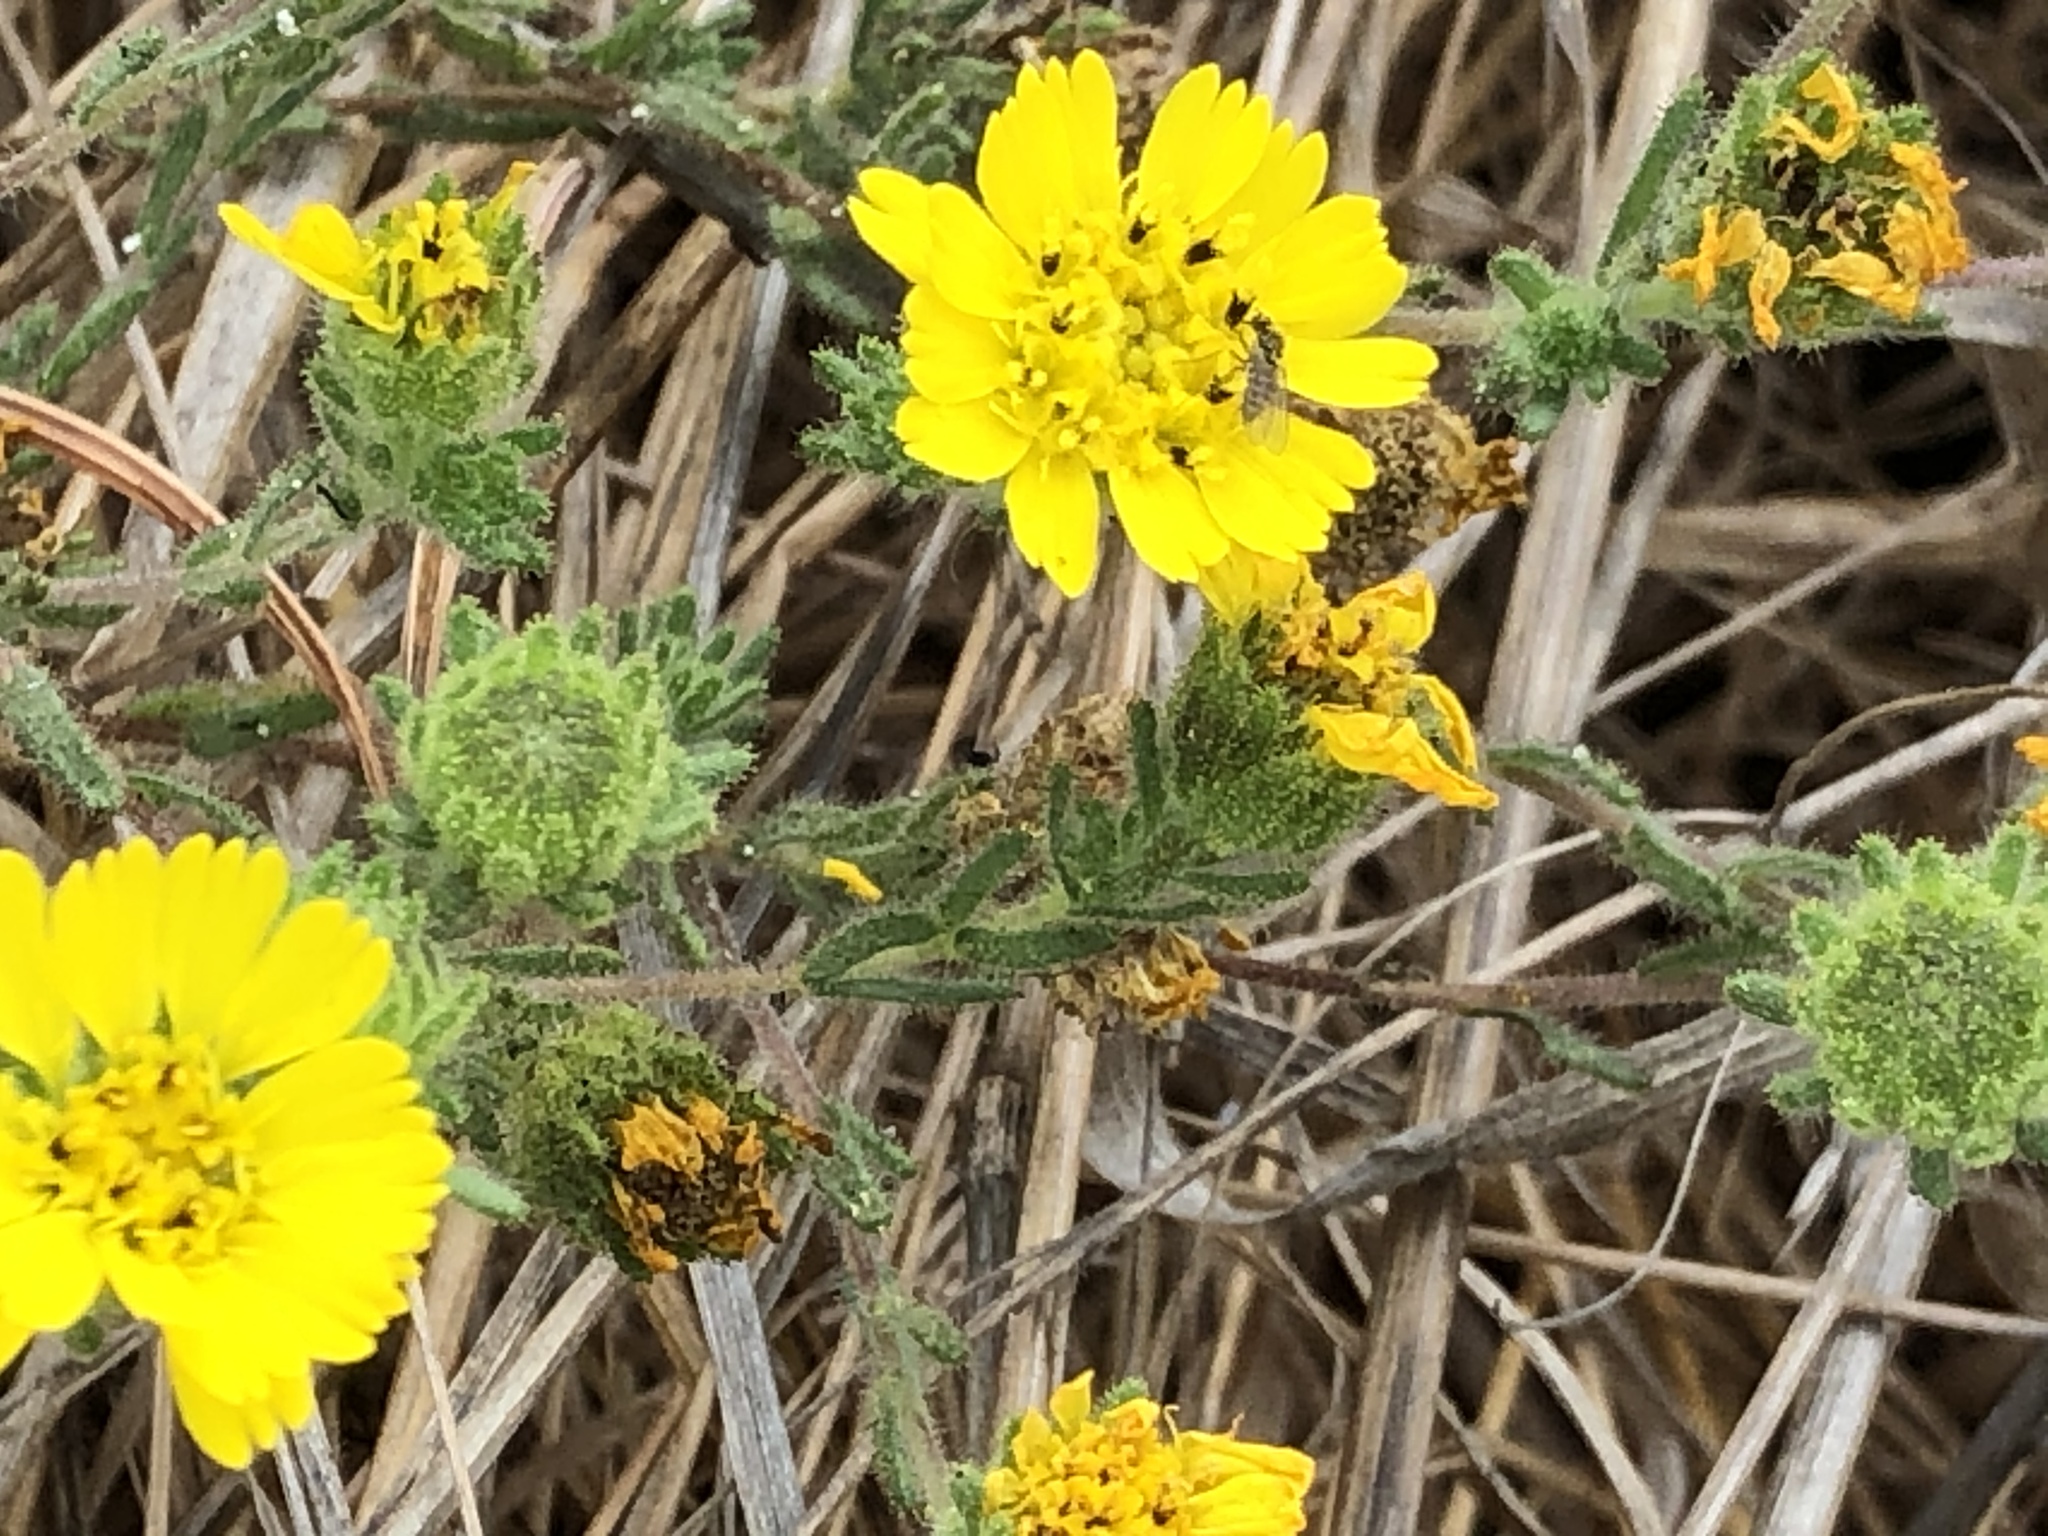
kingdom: Plantae
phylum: Tracheophyta
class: Magnoliopsida
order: Asterales
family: Asteraceae
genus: Deinandra
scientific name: Deinandra corymbosa
